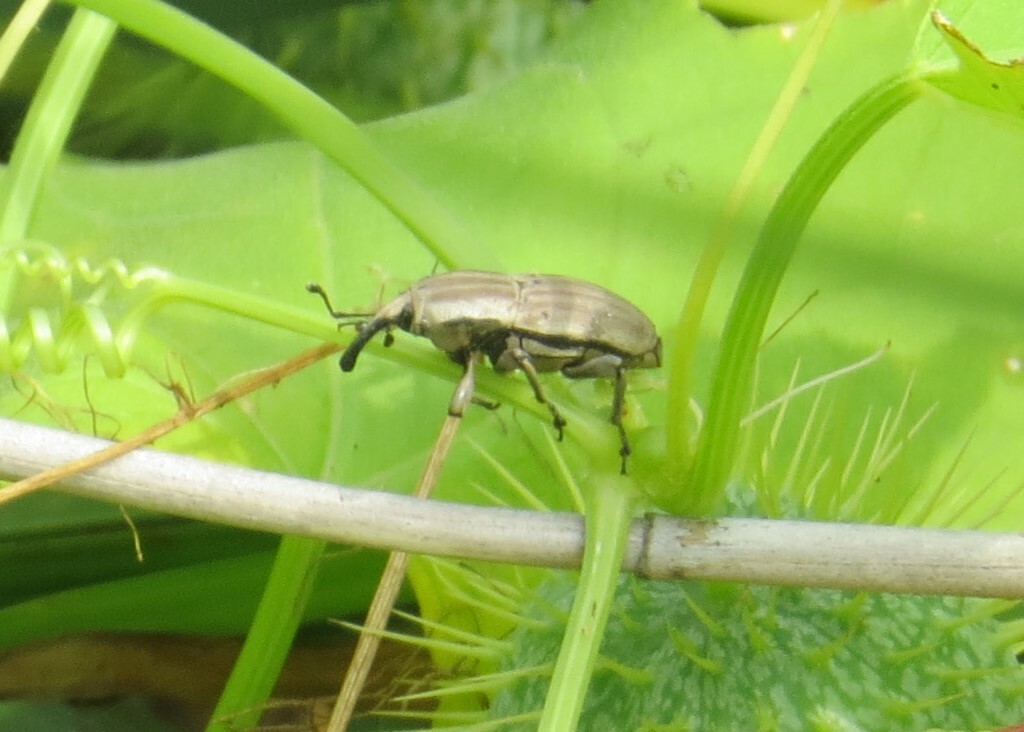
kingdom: Animalia
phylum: Arthropoda
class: Insecta
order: Coleoptera
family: Dryophthoridae
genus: Sphenophorus
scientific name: Sphenophorus aequalis
